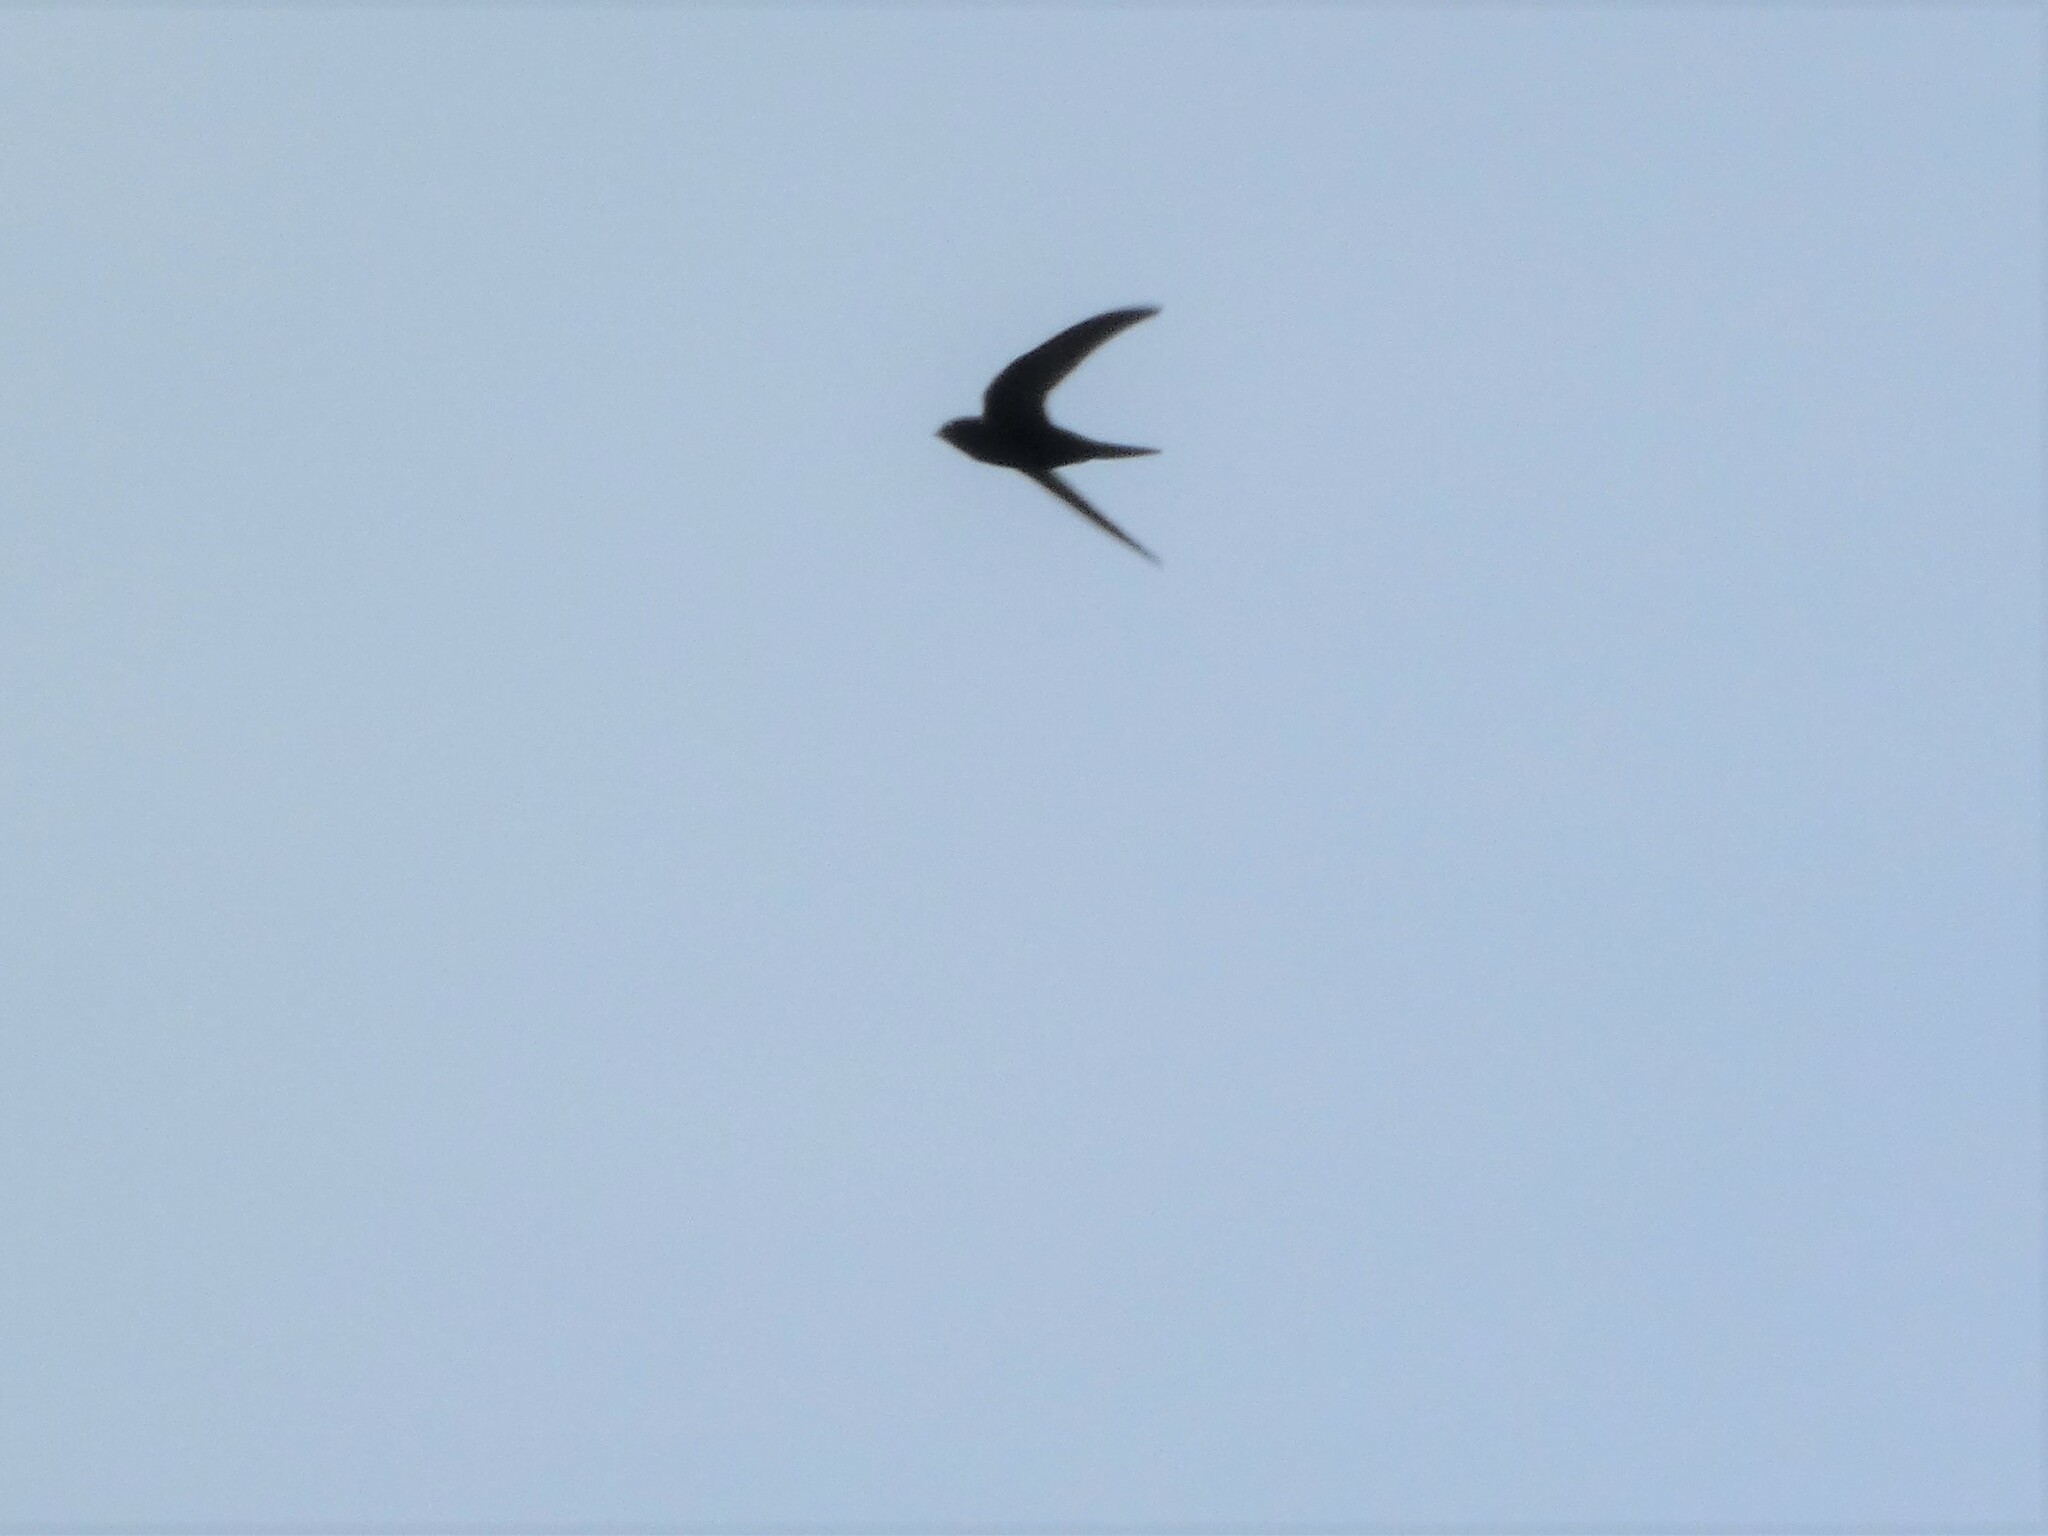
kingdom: Animalia
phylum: Chordata
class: Aves
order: Apodiformes
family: Apodidae
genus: Apus
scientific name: Apus apus
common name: Common swift
